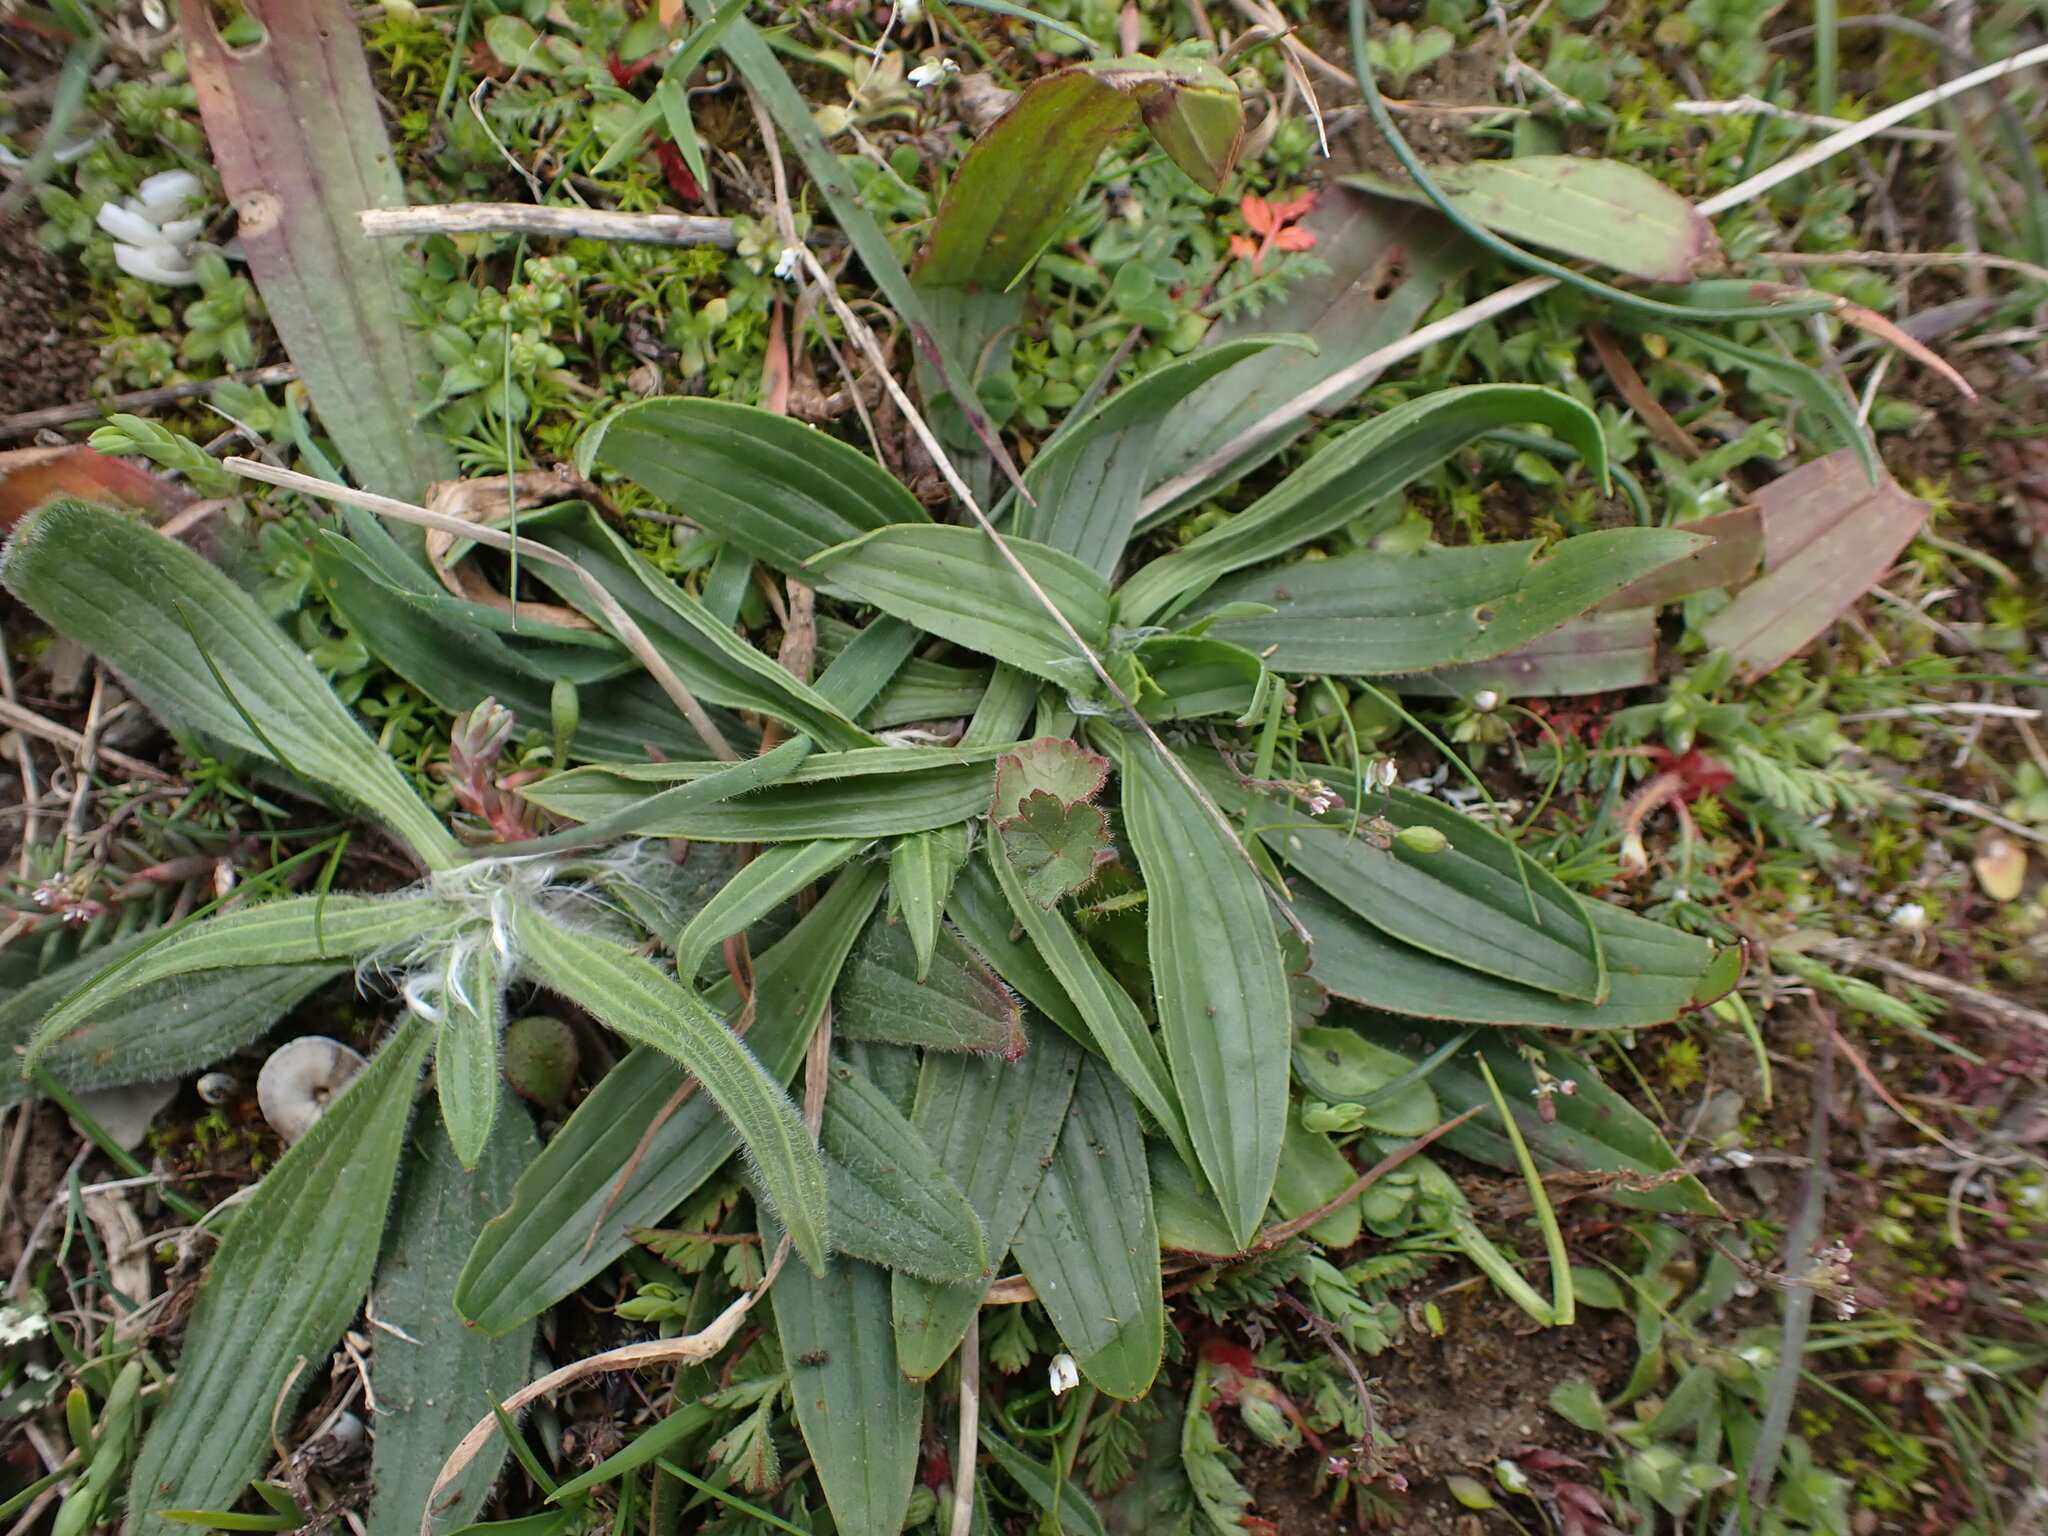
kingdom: Plantae
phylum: Tracheophyta
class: Magnoliopsida
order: Lamiales
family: Plantaginaceae
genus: Plantago
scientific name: Plantago lanceolata
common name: Ribwort plantain
